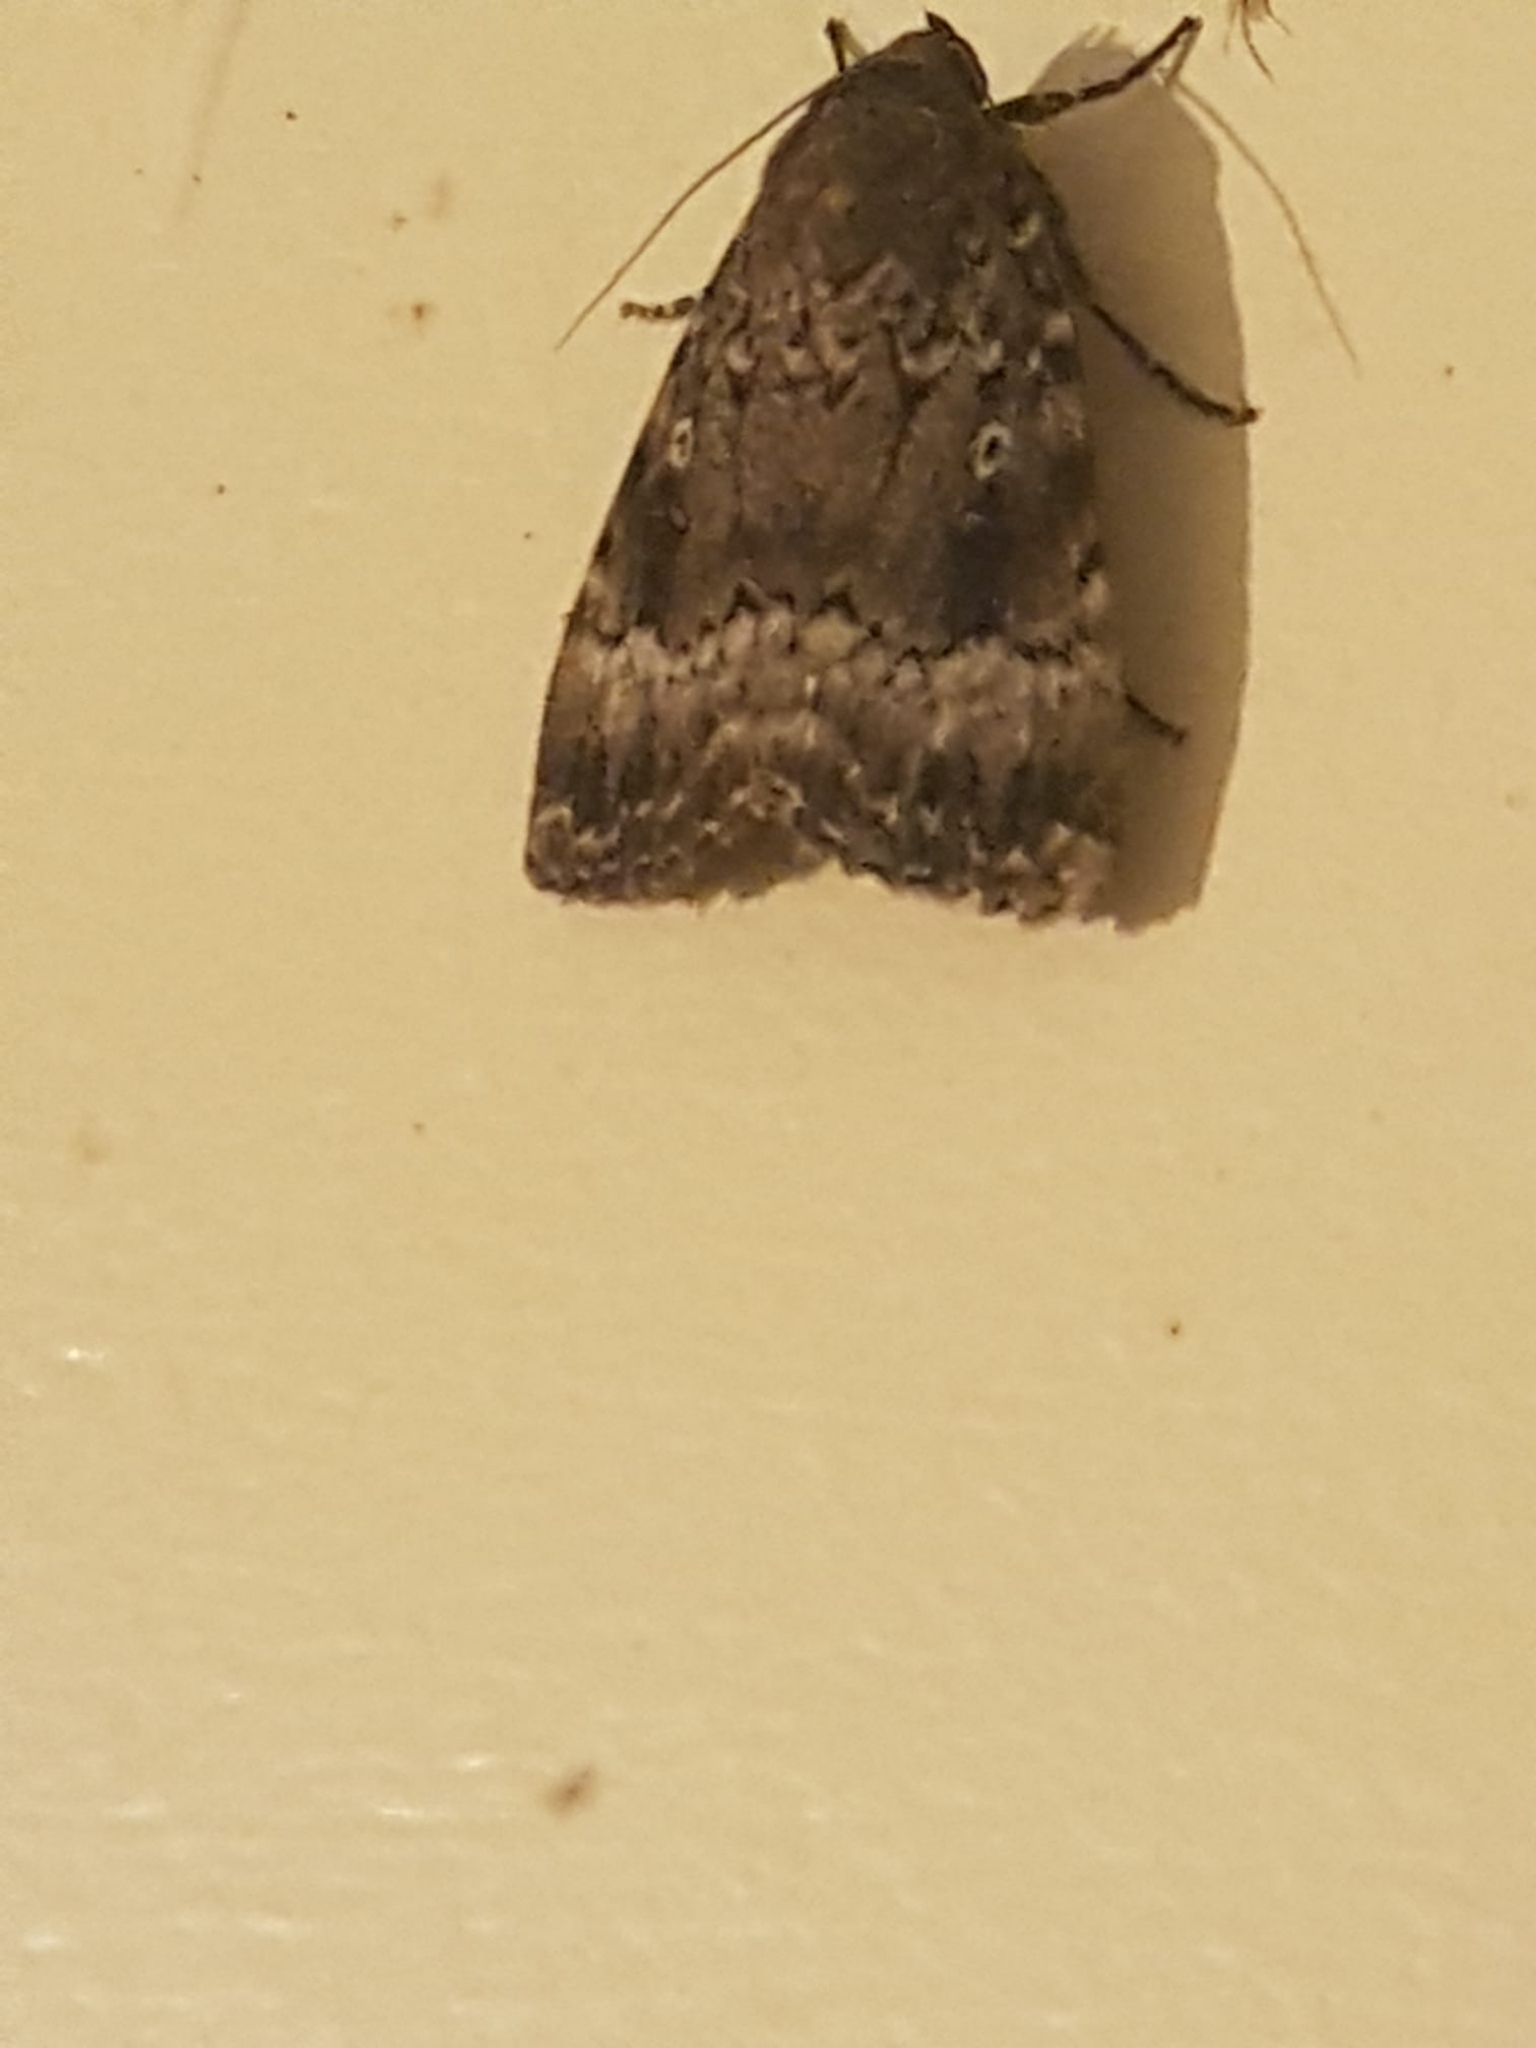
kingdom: Animalia
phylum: Arthropoda
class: Insecta
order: Lepidoptera
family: Noctuidae
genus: Amphipyra
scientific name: Amphipyra pyramidea
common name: Copper underwing
